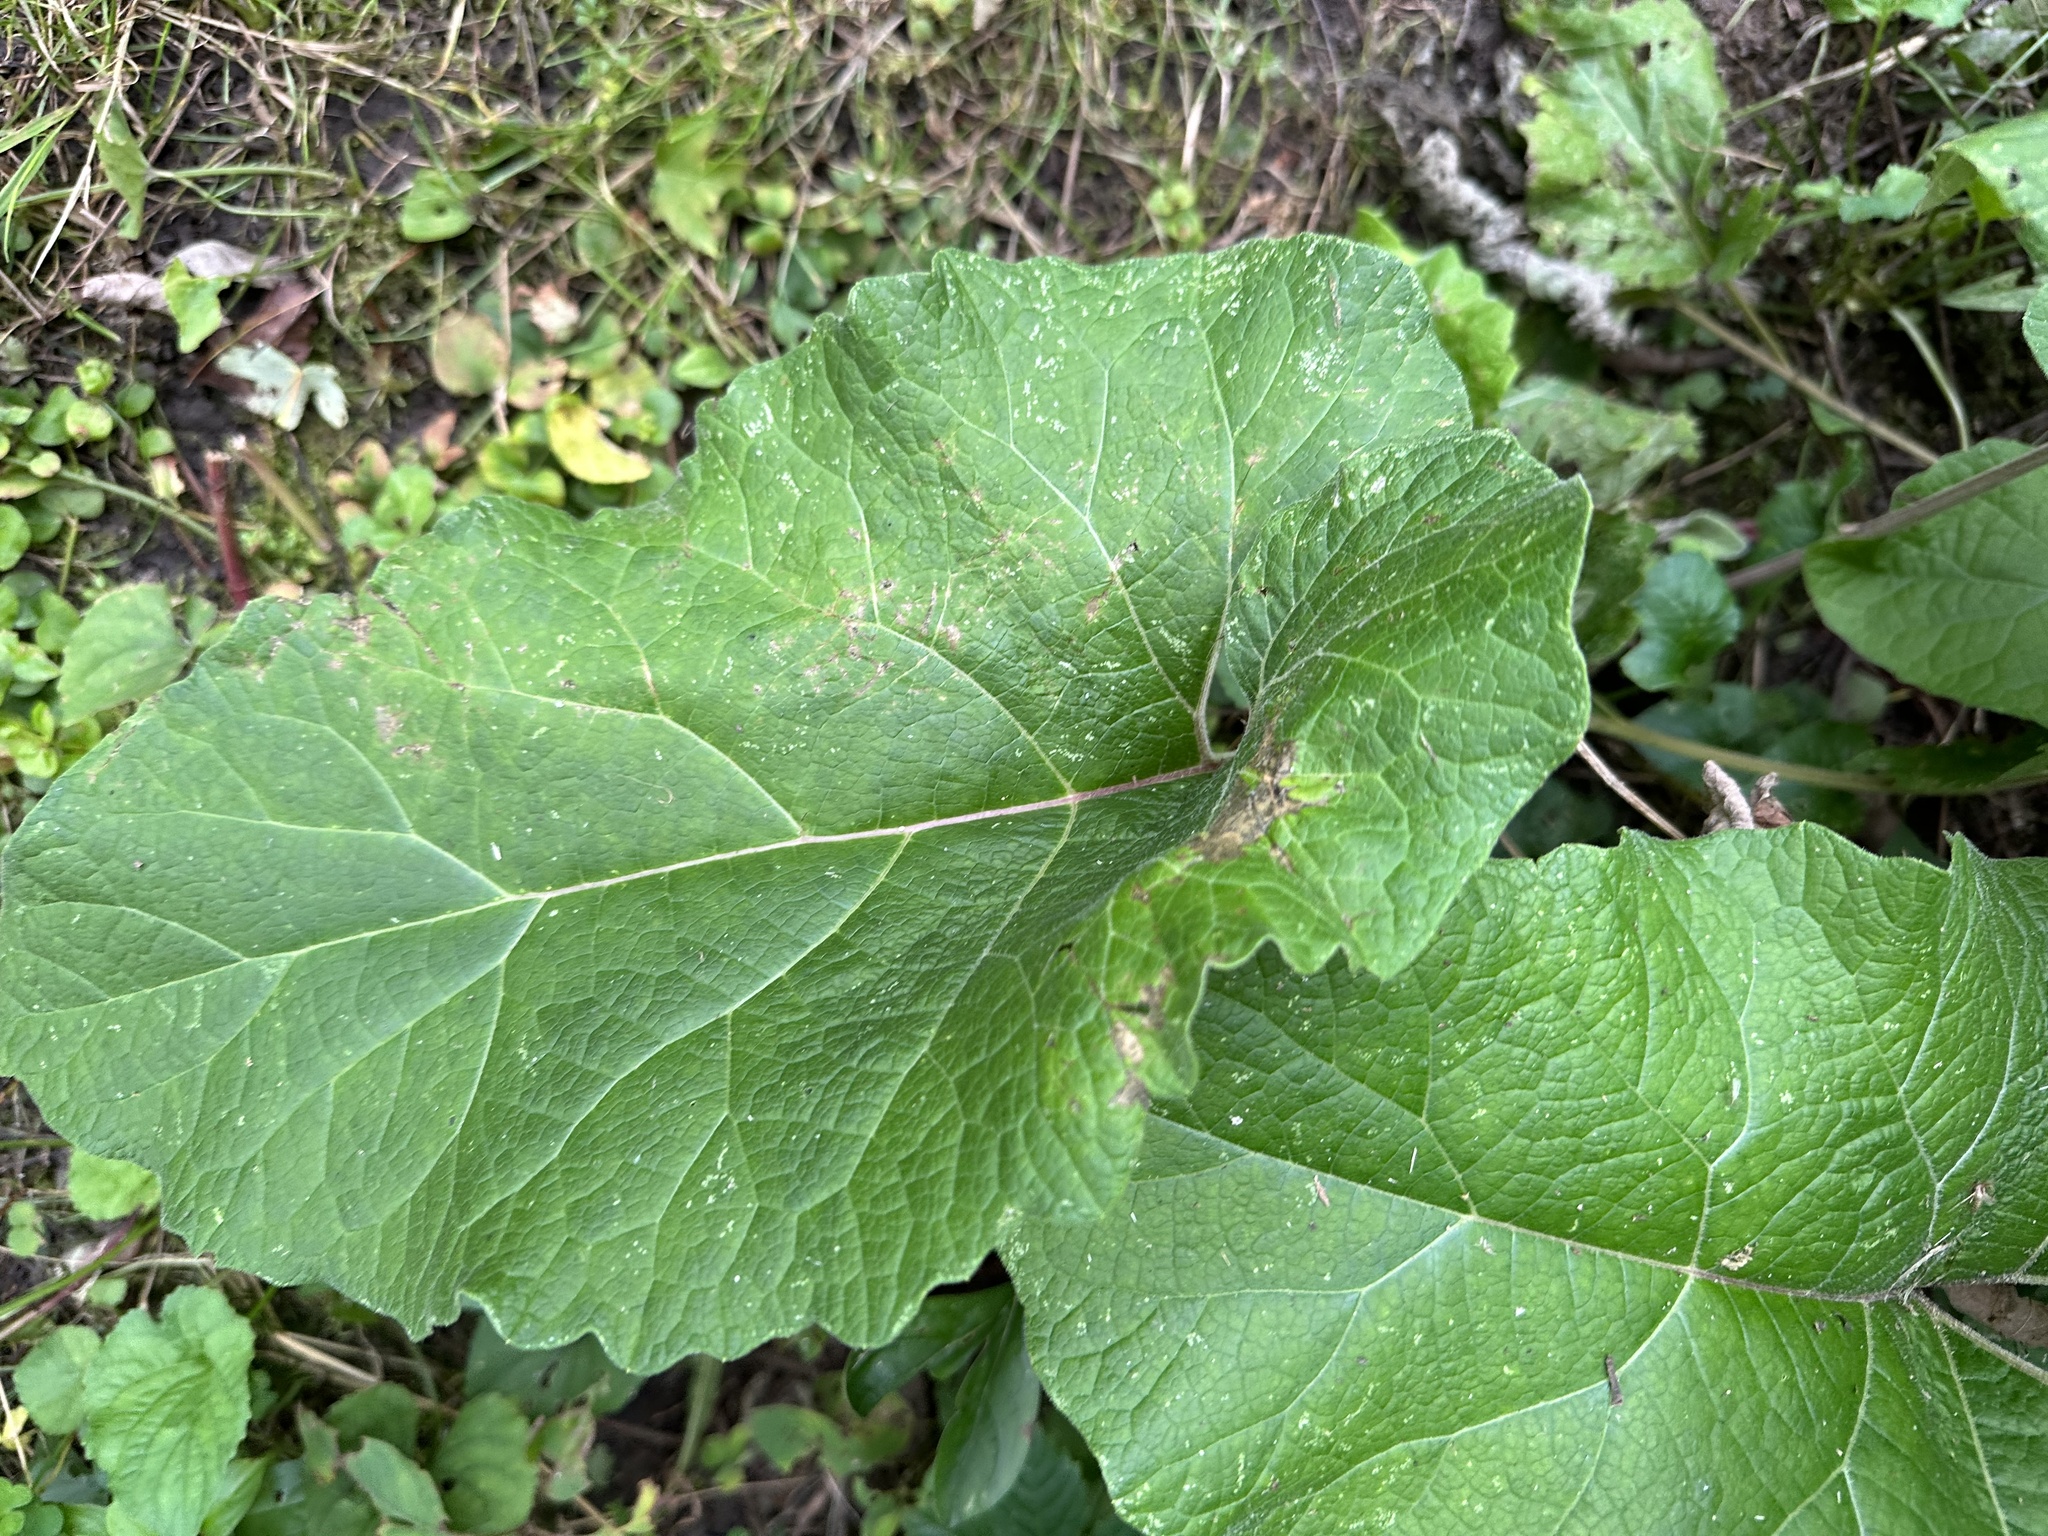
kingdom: Plantae
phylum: Tracheophyta
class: Magnoliopsida
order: Asterales
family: Asteraceae
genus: Arctium
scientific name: Arctium
